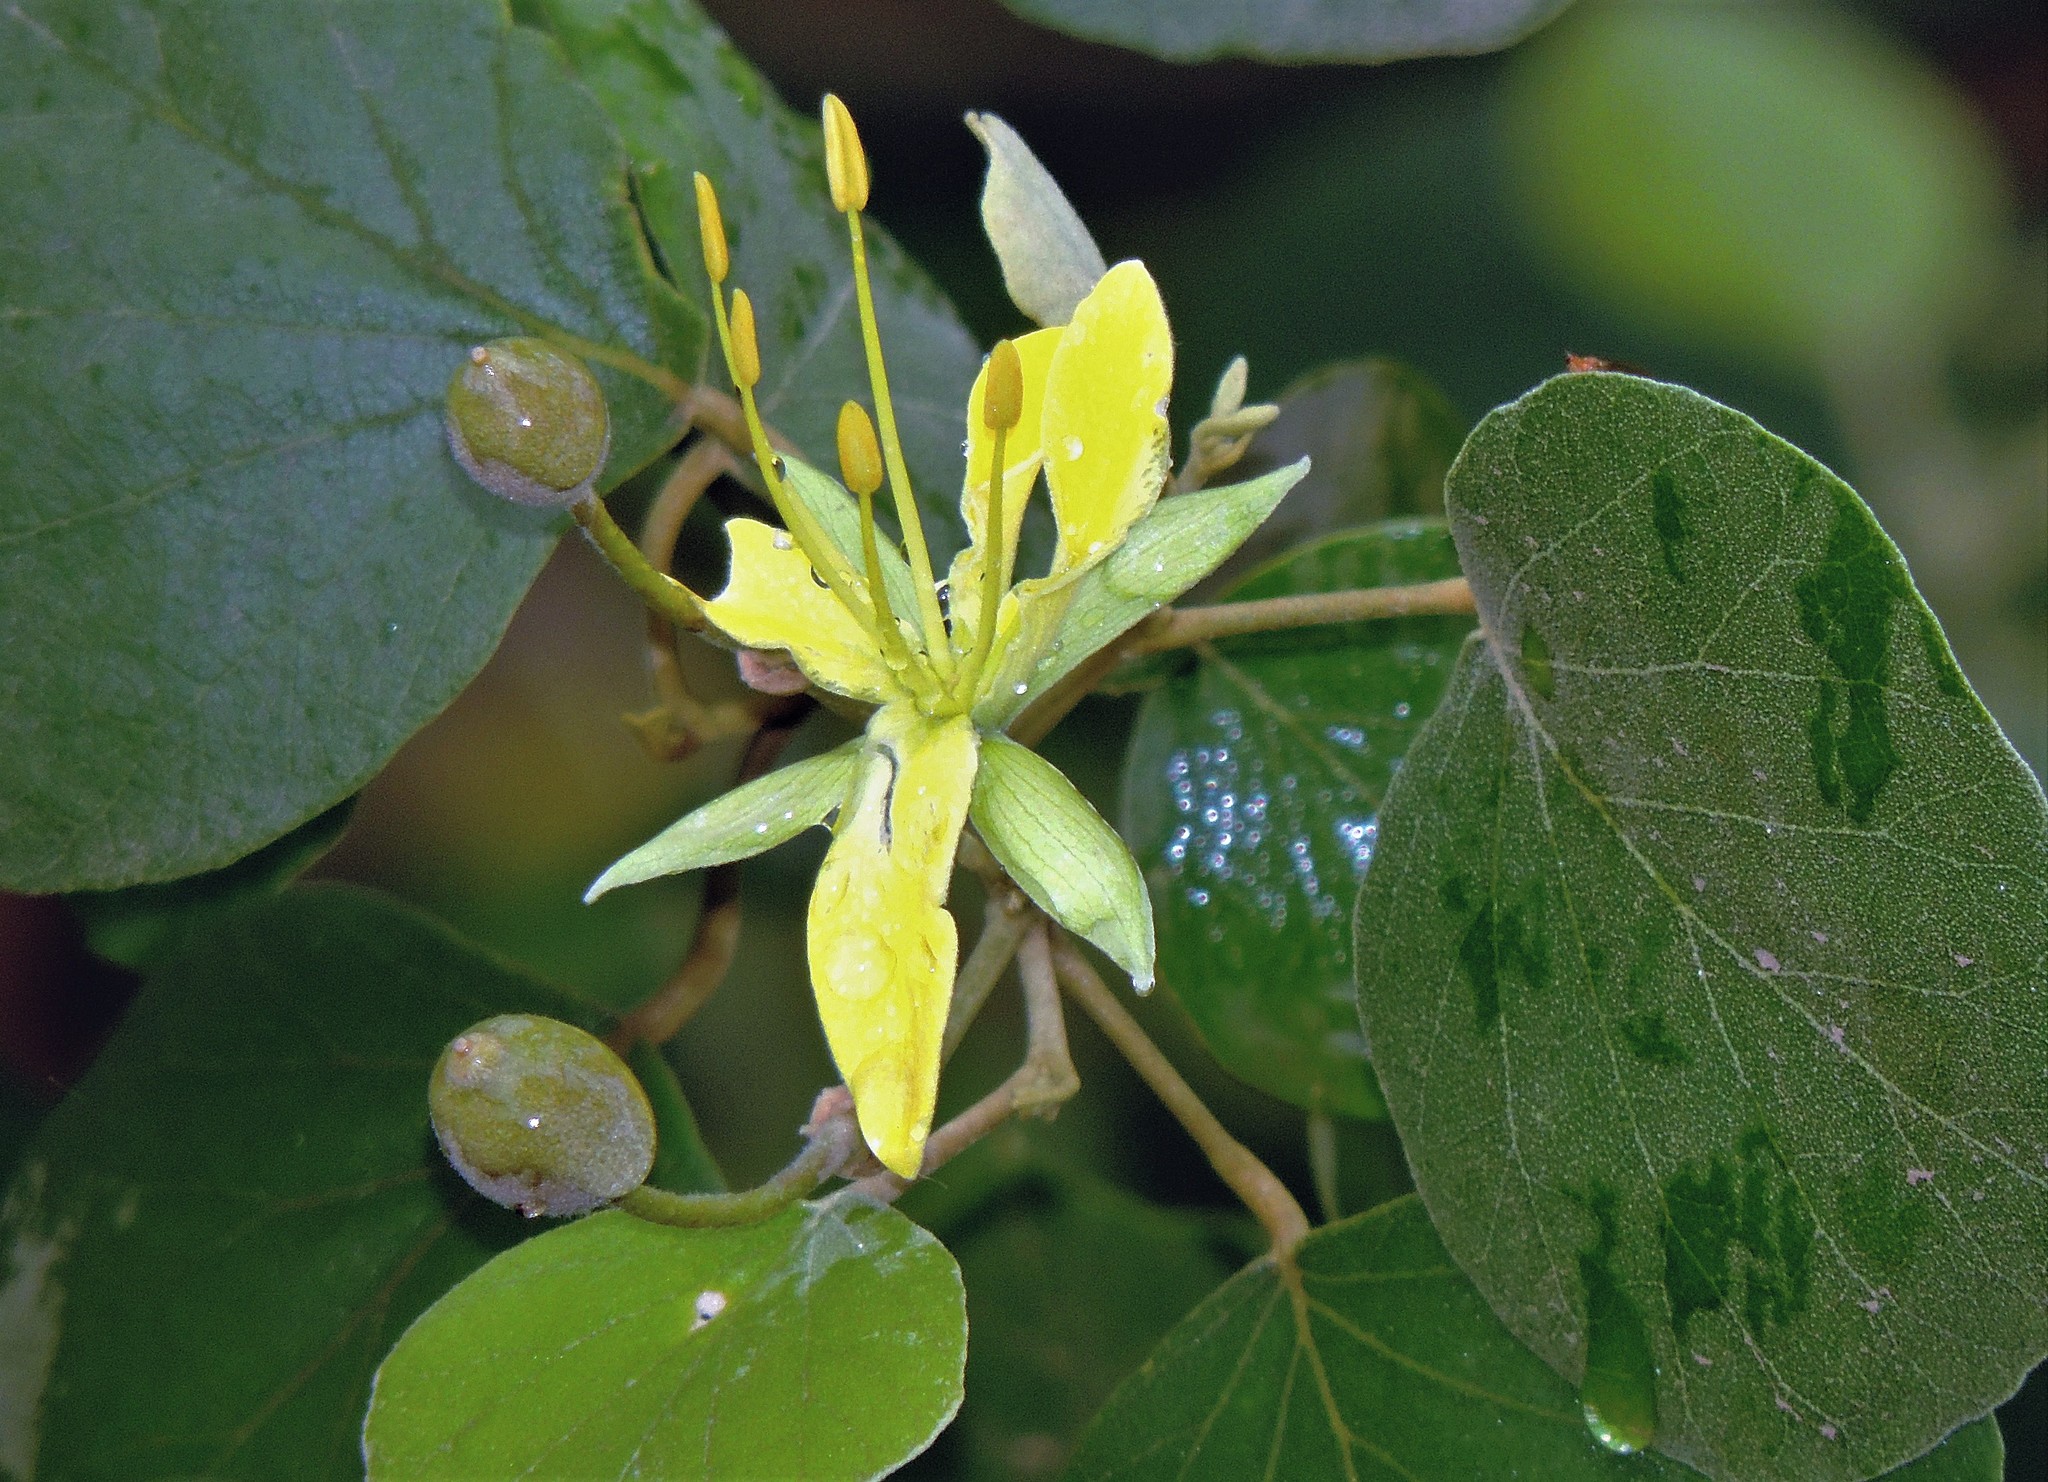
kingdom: Plantae
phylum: Tracheophyta
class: Magnoliopsida
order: Brassicales
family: Capparaceae
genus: Capparicordis
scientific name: Capparicordis tweedieana
